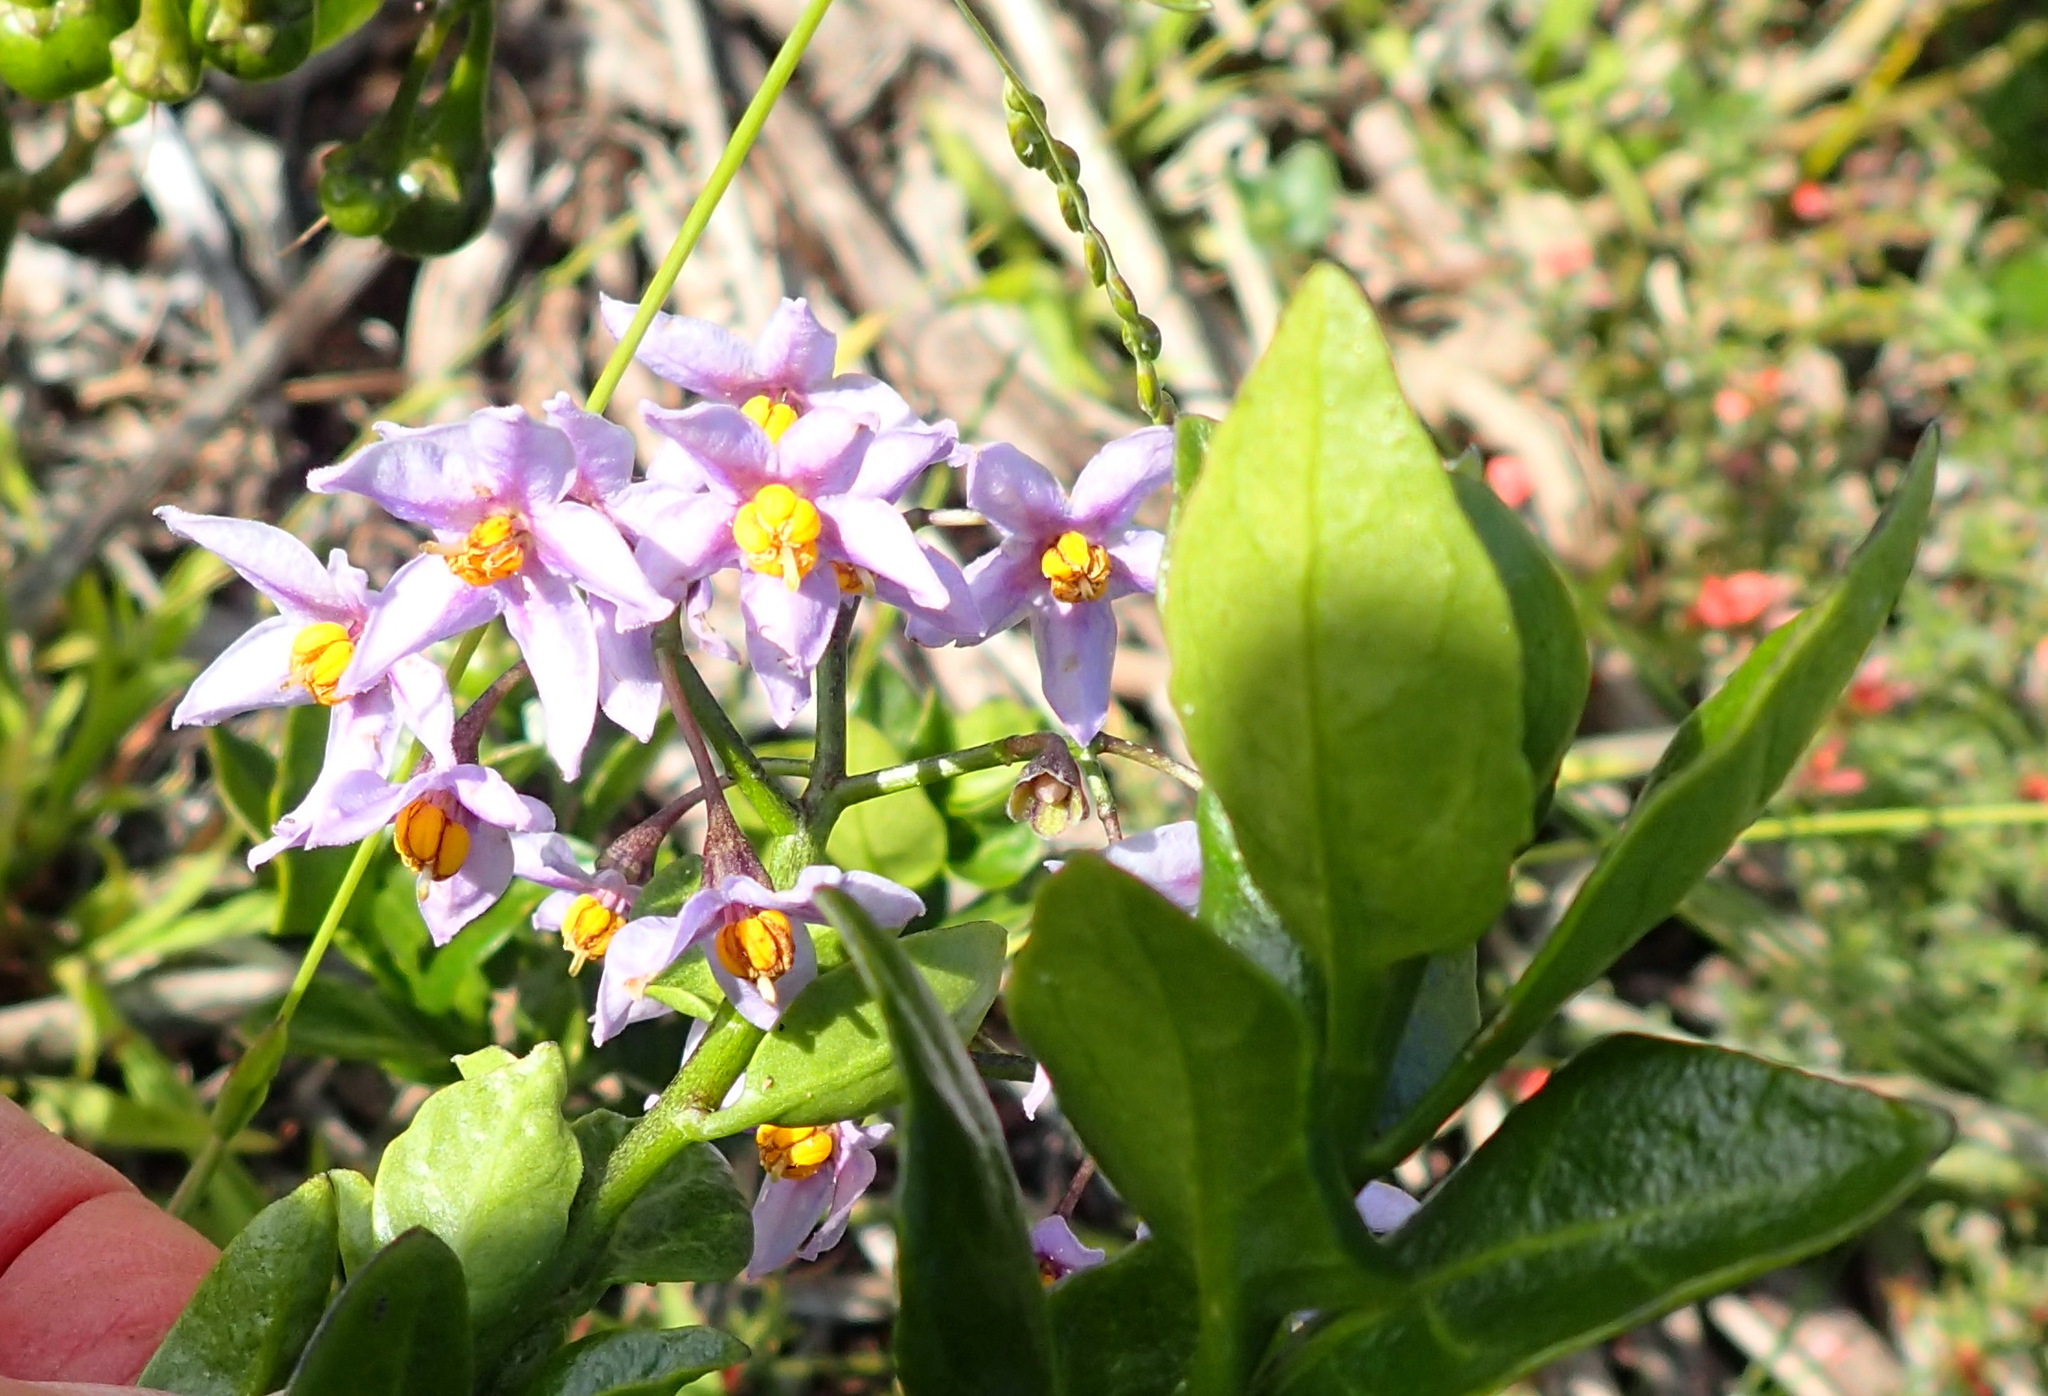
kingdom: Plantae
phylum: Tracheophyta
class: Magnoliopsida
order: Solanales
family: Solanaceae
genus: Solanum
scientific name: Solanum africanum
